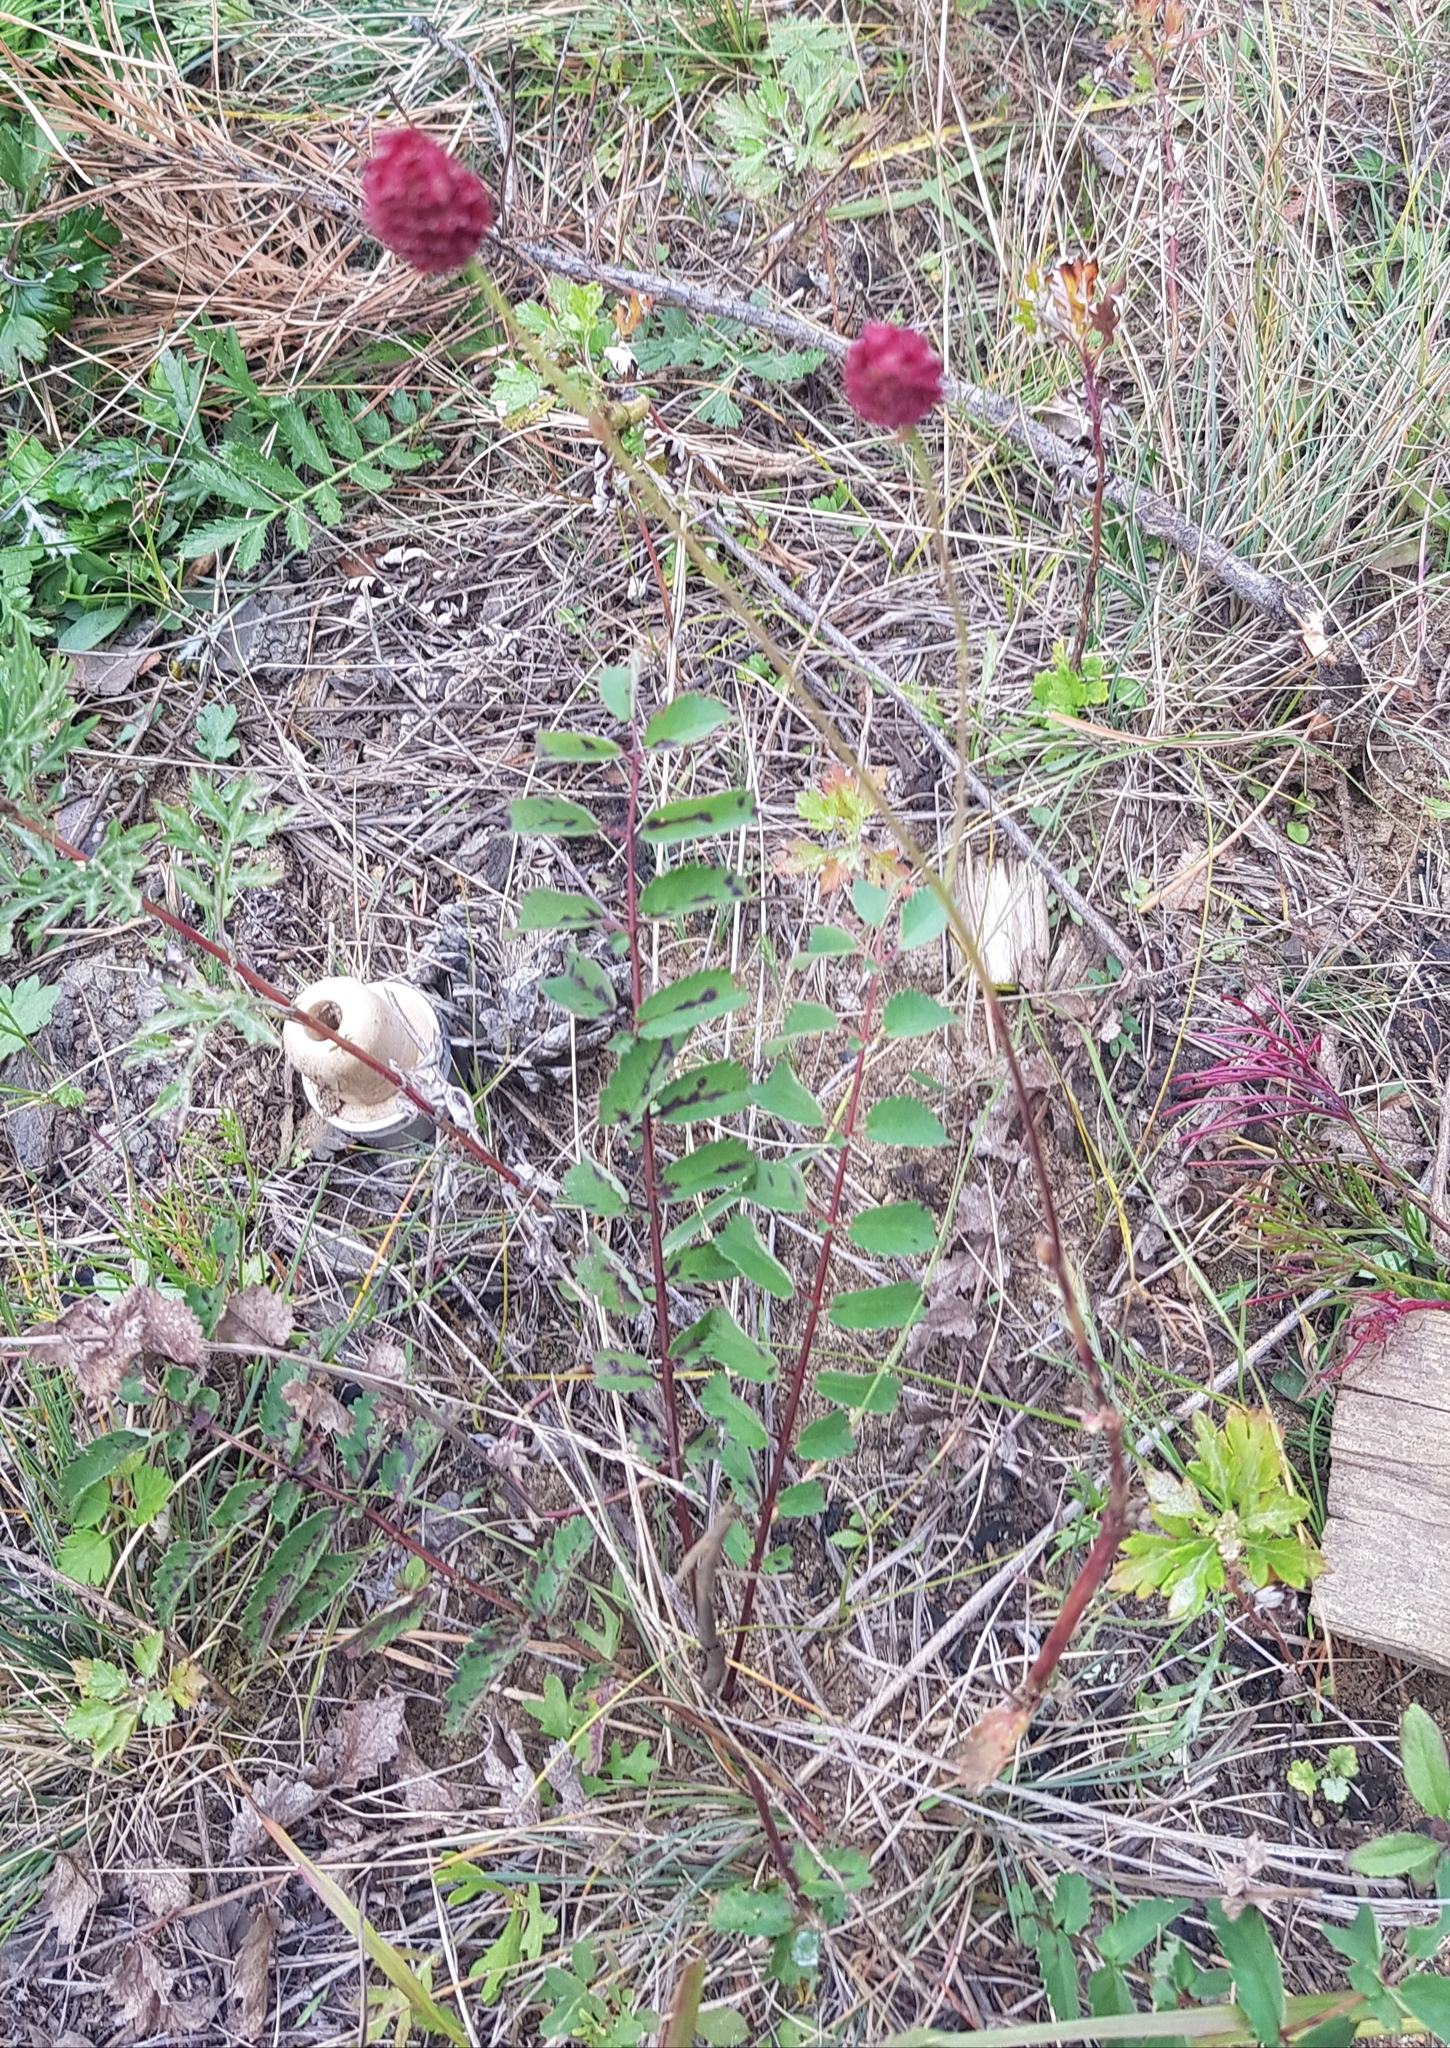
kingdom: Plantae
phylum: Tracheophyta
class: Magnoliopsida
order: Rosales
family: Rosaceae
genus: Sanguisorba
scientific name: Sanguisorba officinalis
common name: Great burnet
